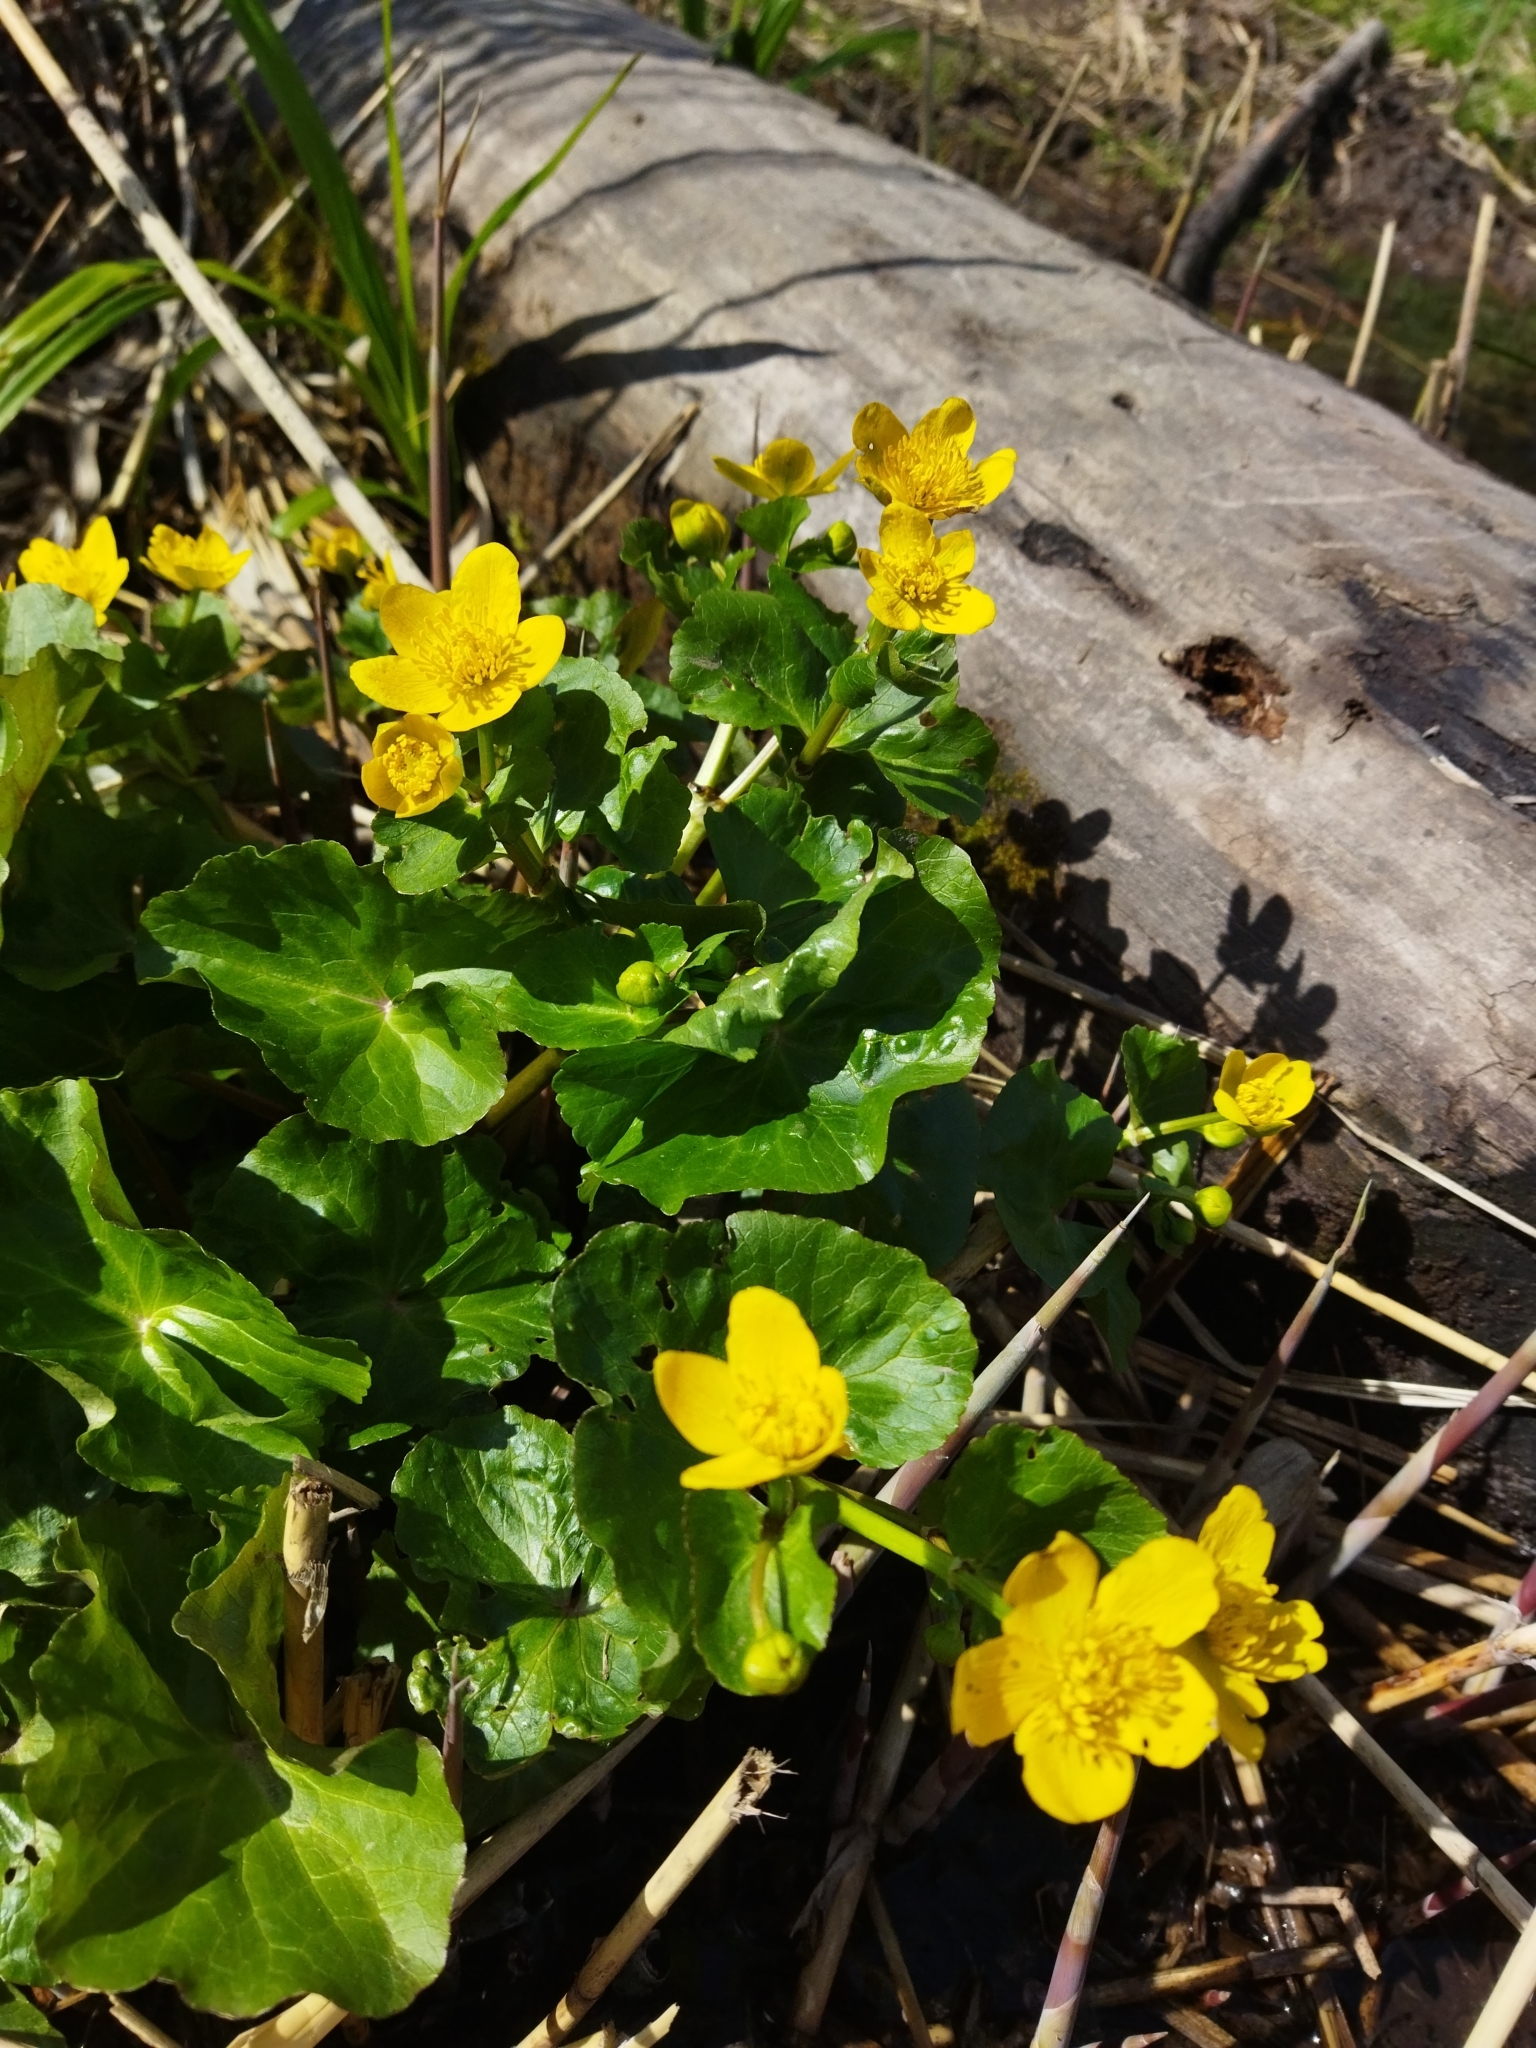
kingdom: Plantae
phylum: Tracheophyta
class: Magnoliopsida
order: Ranunculales
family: Ranunculaceae
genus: Caltha
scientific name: Caltha palustris
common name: Marsh marigold
